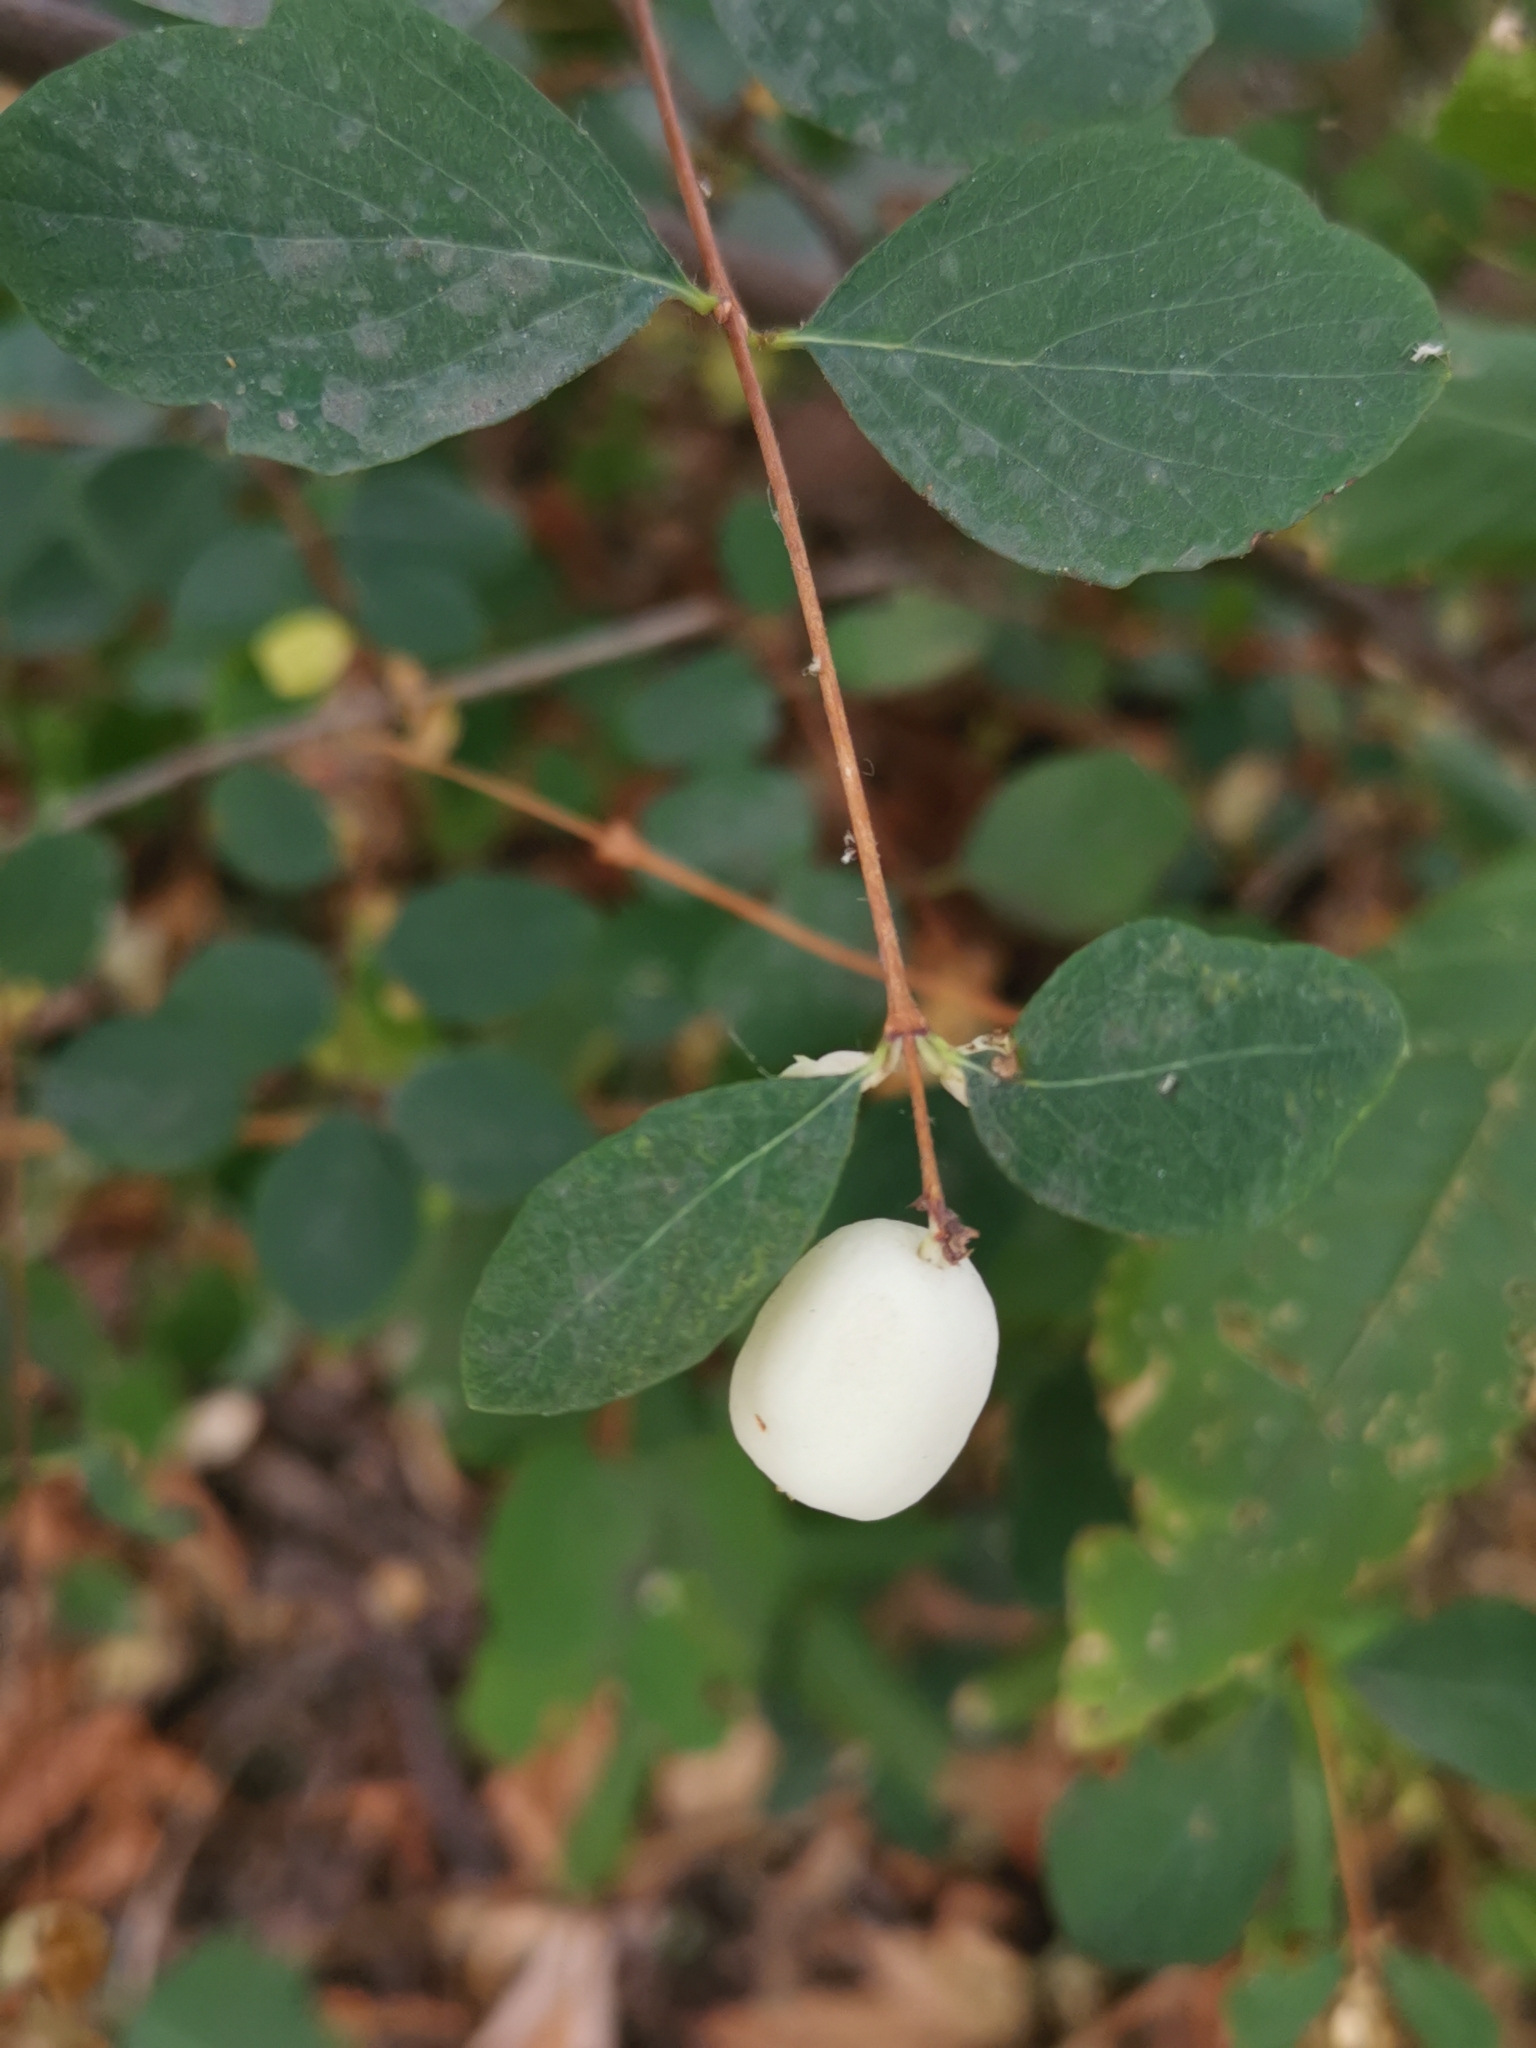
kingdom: Plantae
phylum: Tracheophyta
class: Magnoliopsida
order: Dipsacales
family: Caprifoliaceae
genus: Symphoricarpos
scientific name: Symphoricarpos albus
